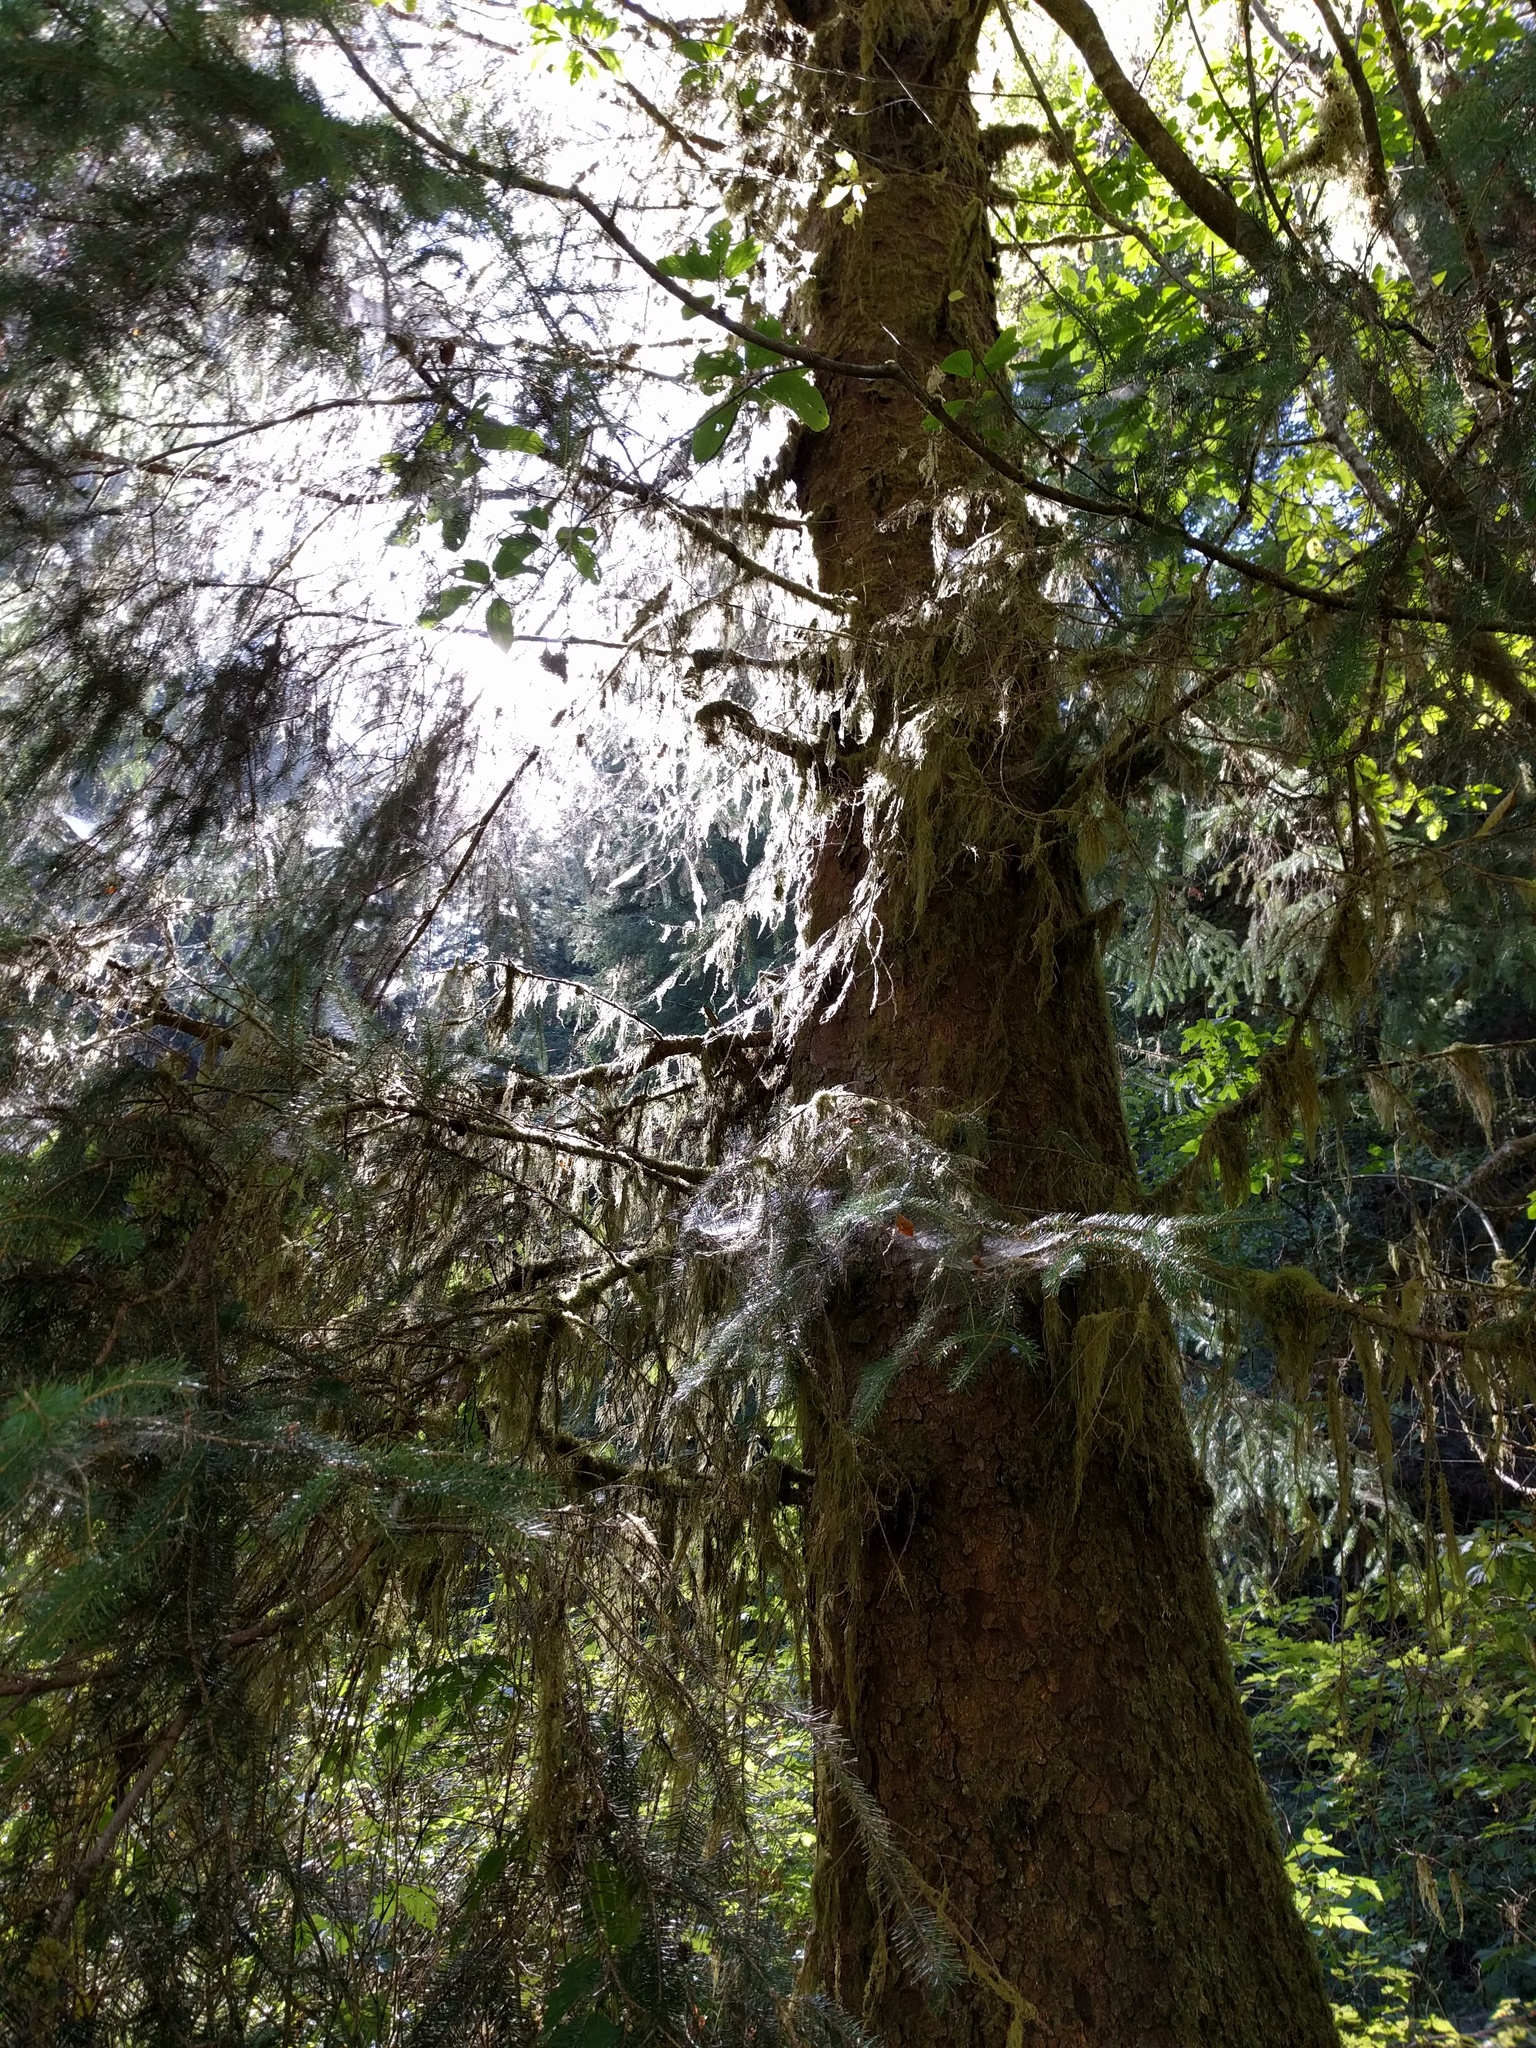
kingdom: Plantae
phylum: Tracheophyta
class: Pinopsida
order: Pinales
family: Pinaceae
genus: Picea
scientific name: Picea sitchensis
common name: Sitka spruce
